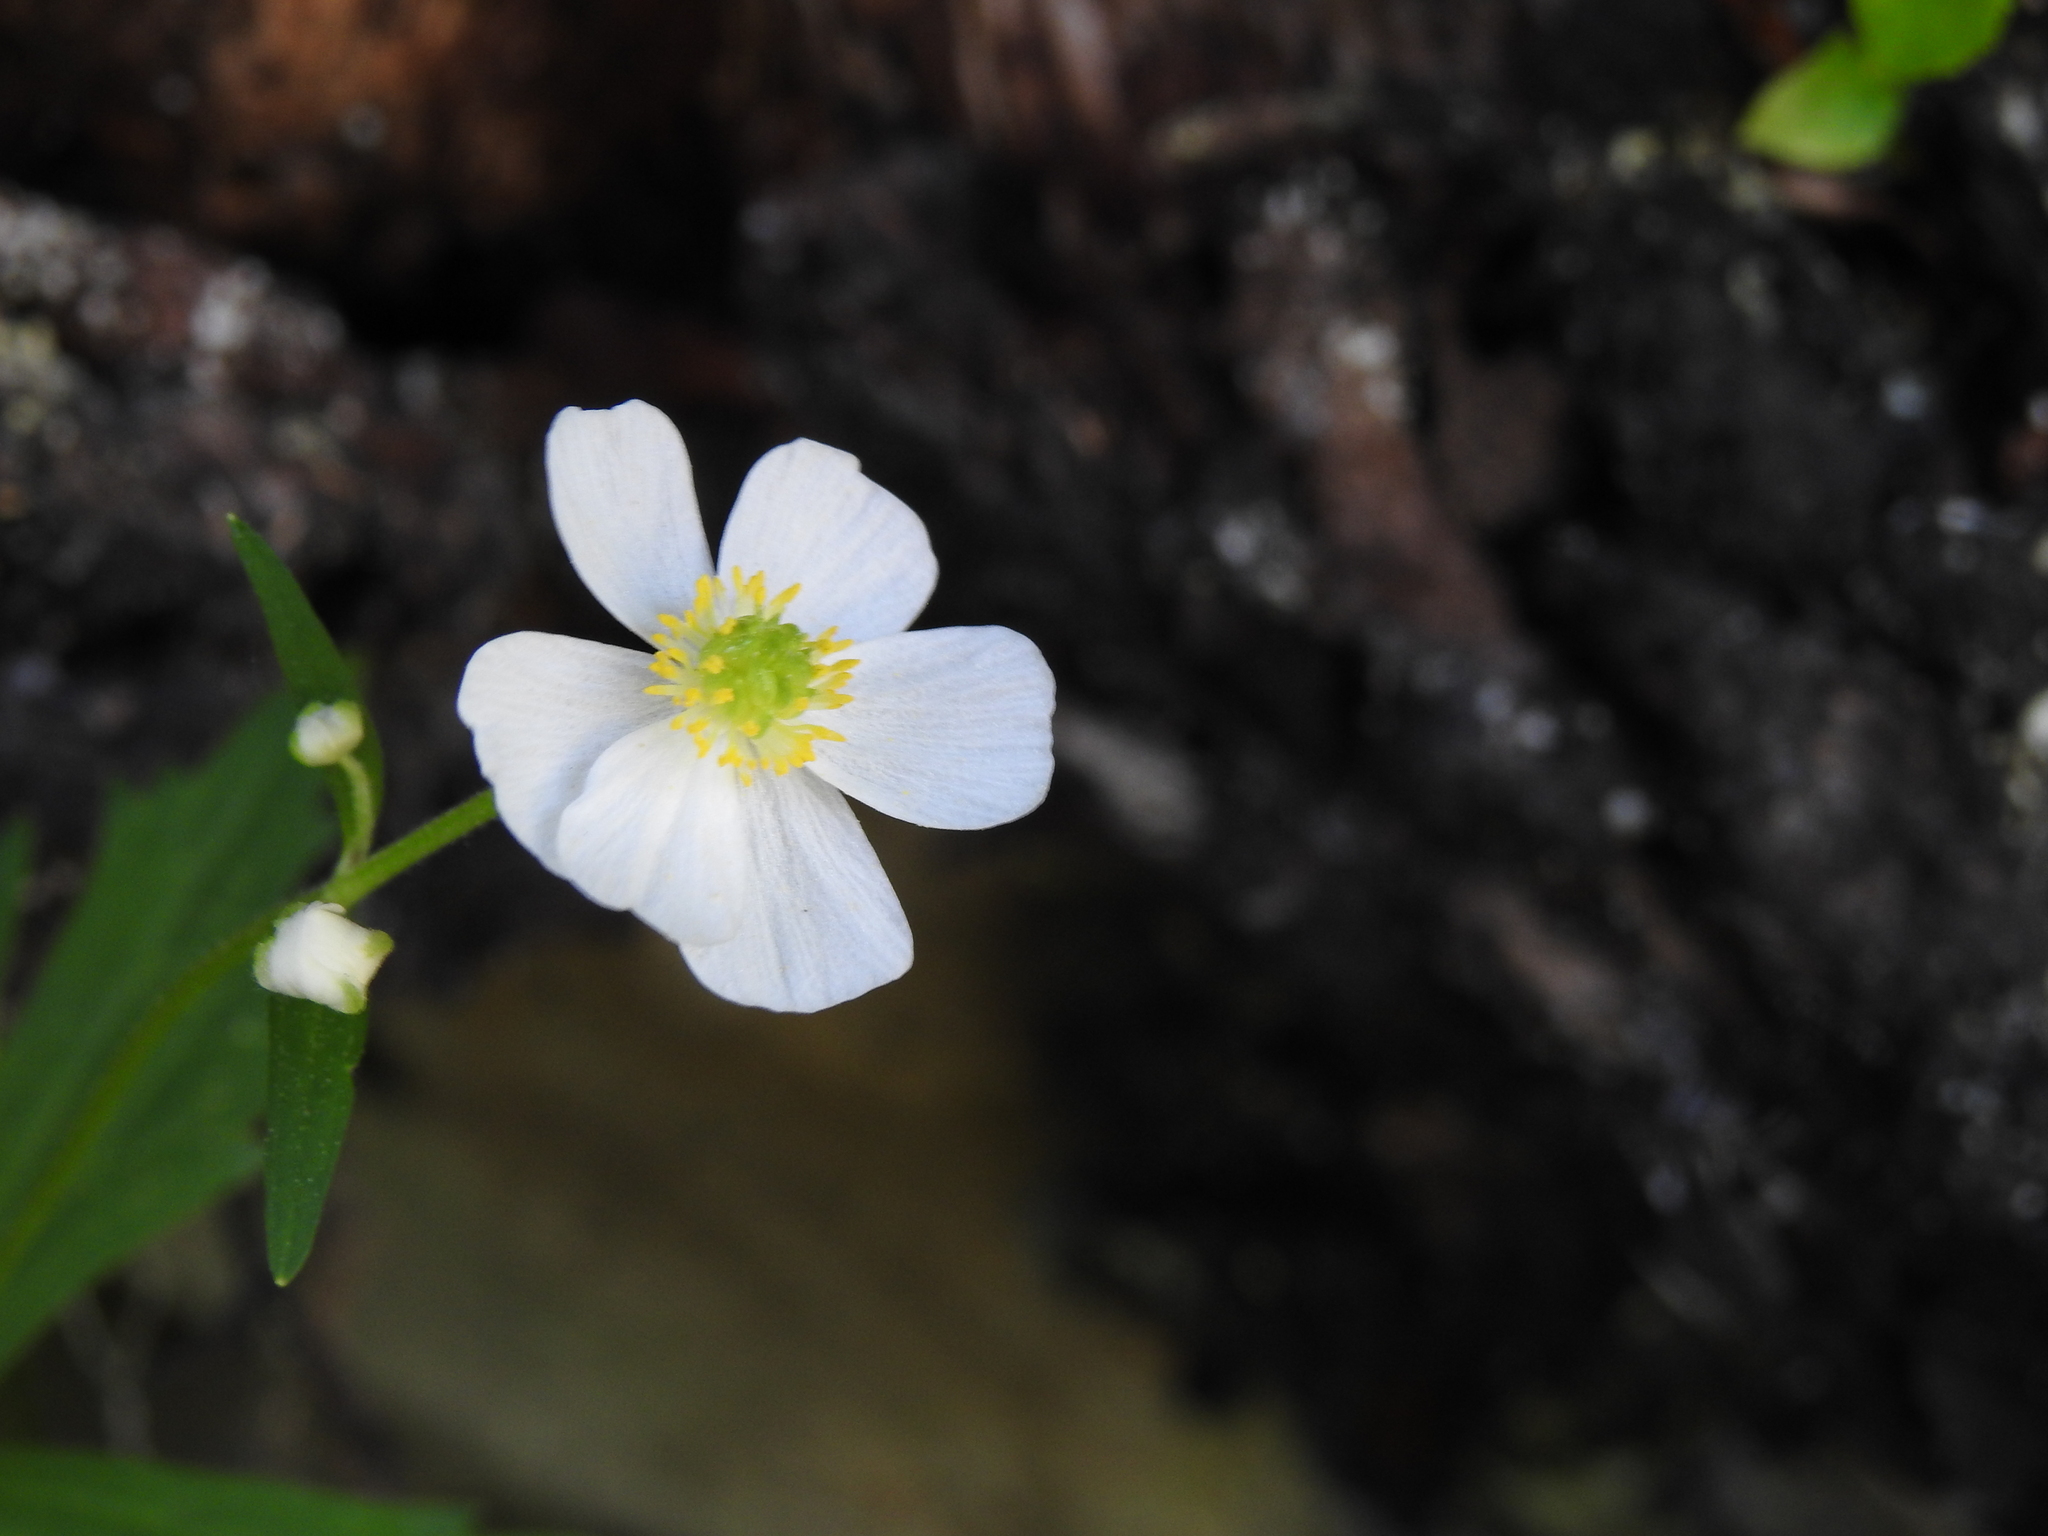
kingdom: Plantae
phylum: Tracheophyta
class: Magnoliopsida
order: Ranunculales
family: Ranunculaceae
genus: Ranunculus
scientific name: Ranunculus aconitifolius
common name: Aconite-leaved buttercup
